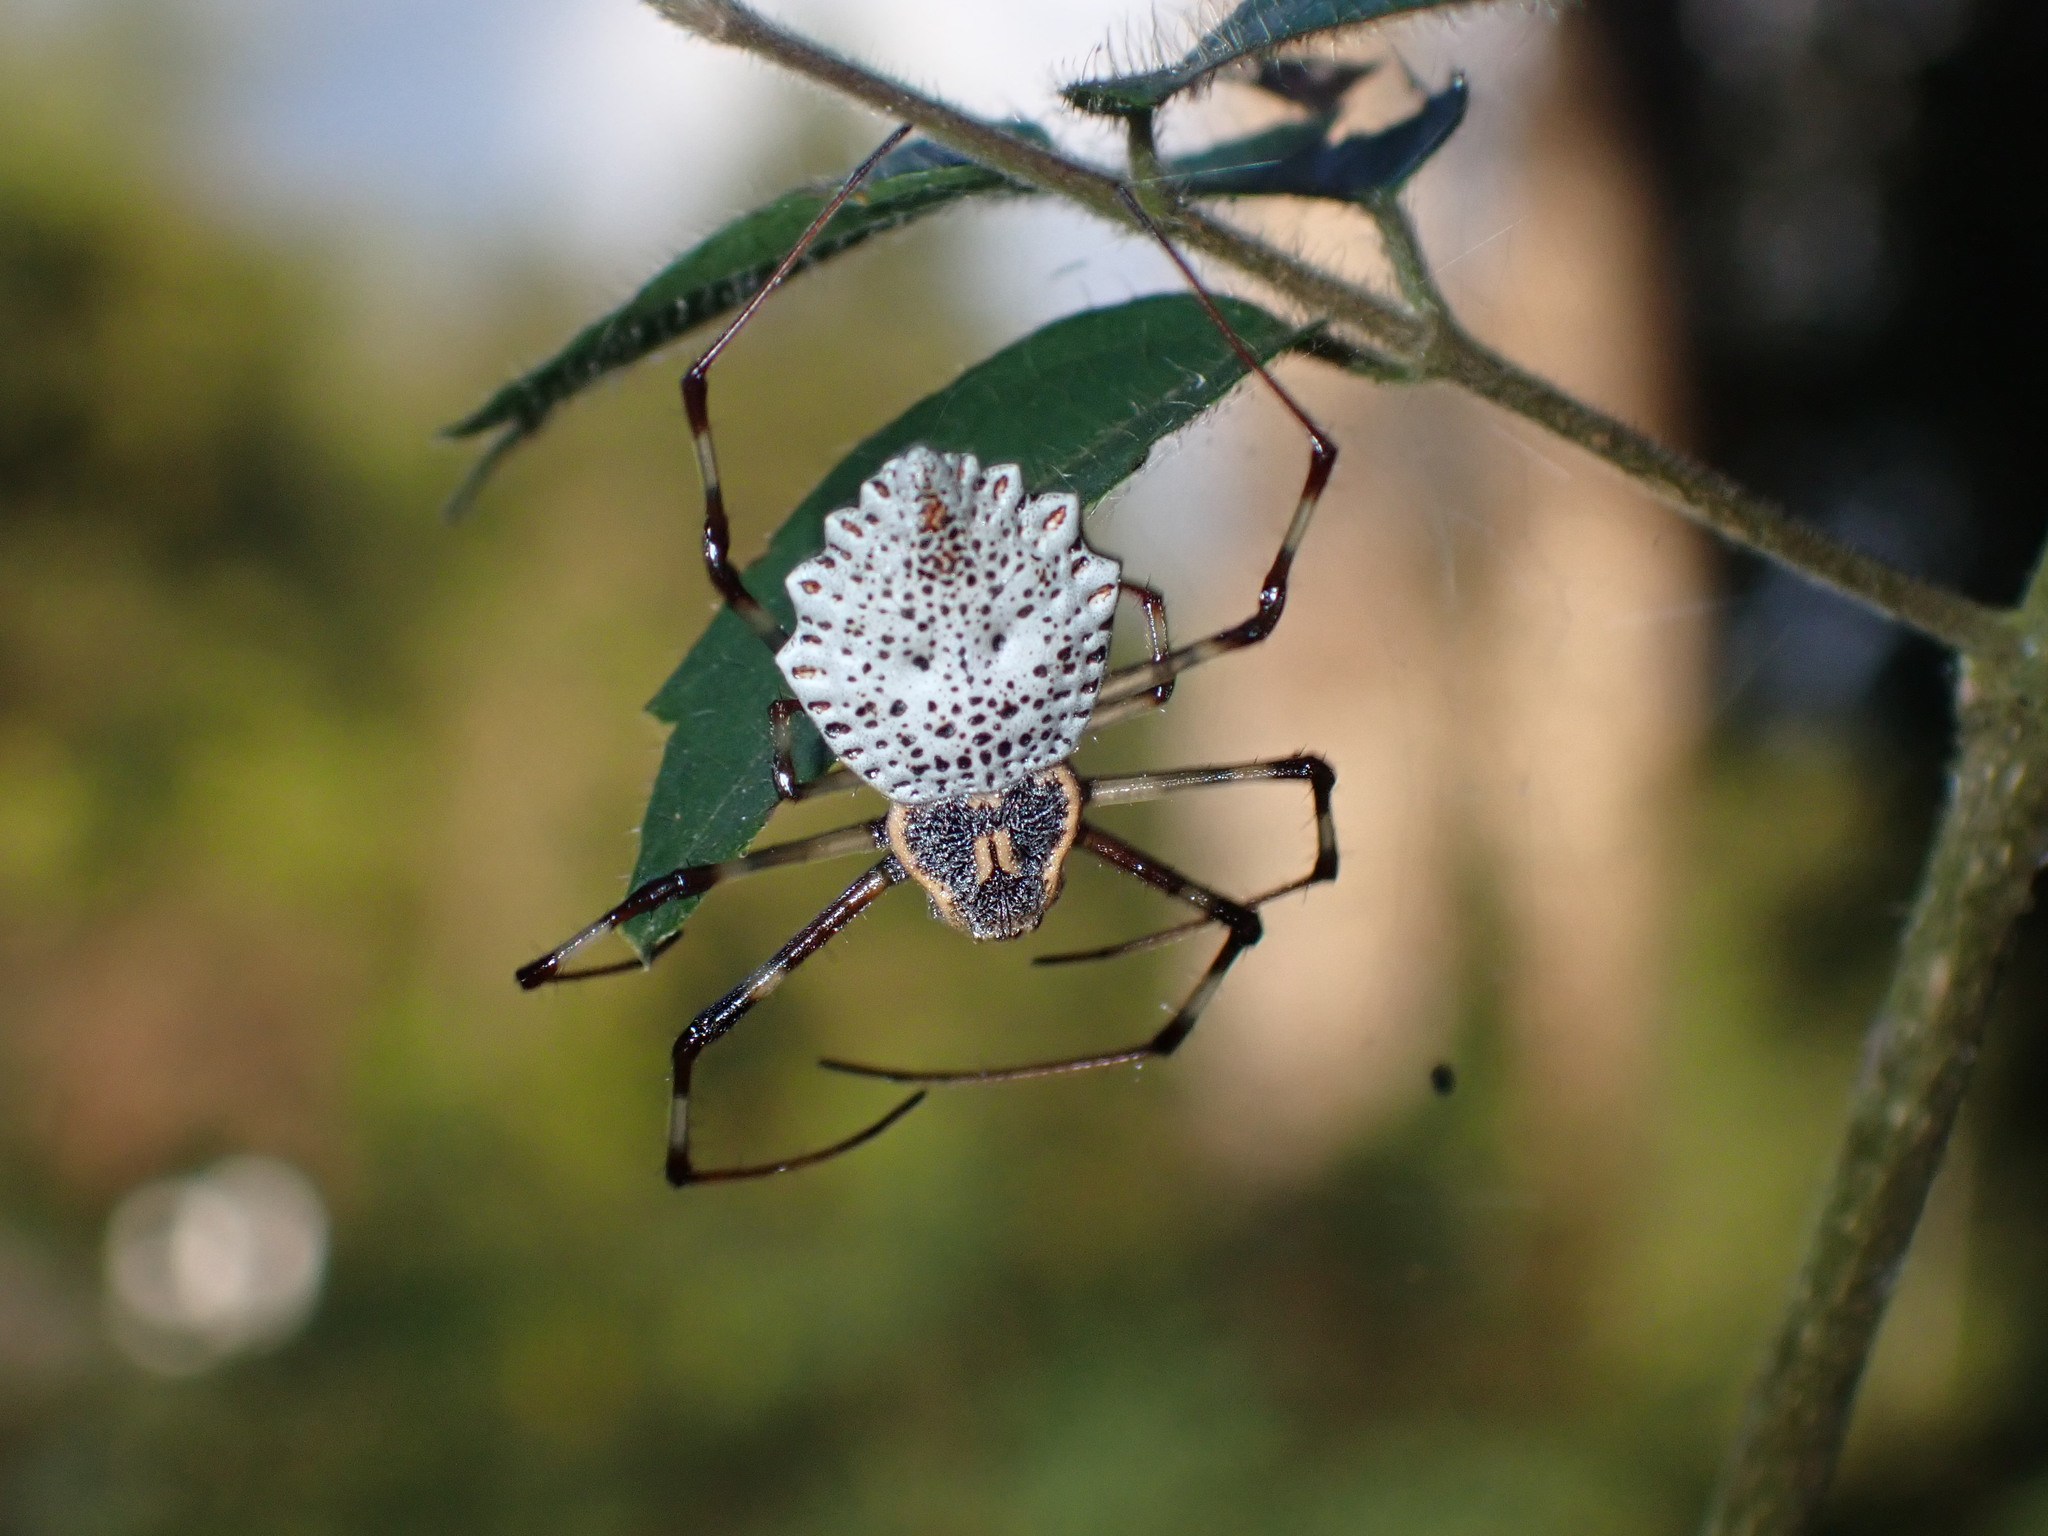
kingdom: Animalia
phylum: Arthropoda
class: Arachnida
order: Araneae
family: Araneidae
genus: Herennia
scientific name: Herennia multipuncta
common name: Spotted coin spider
